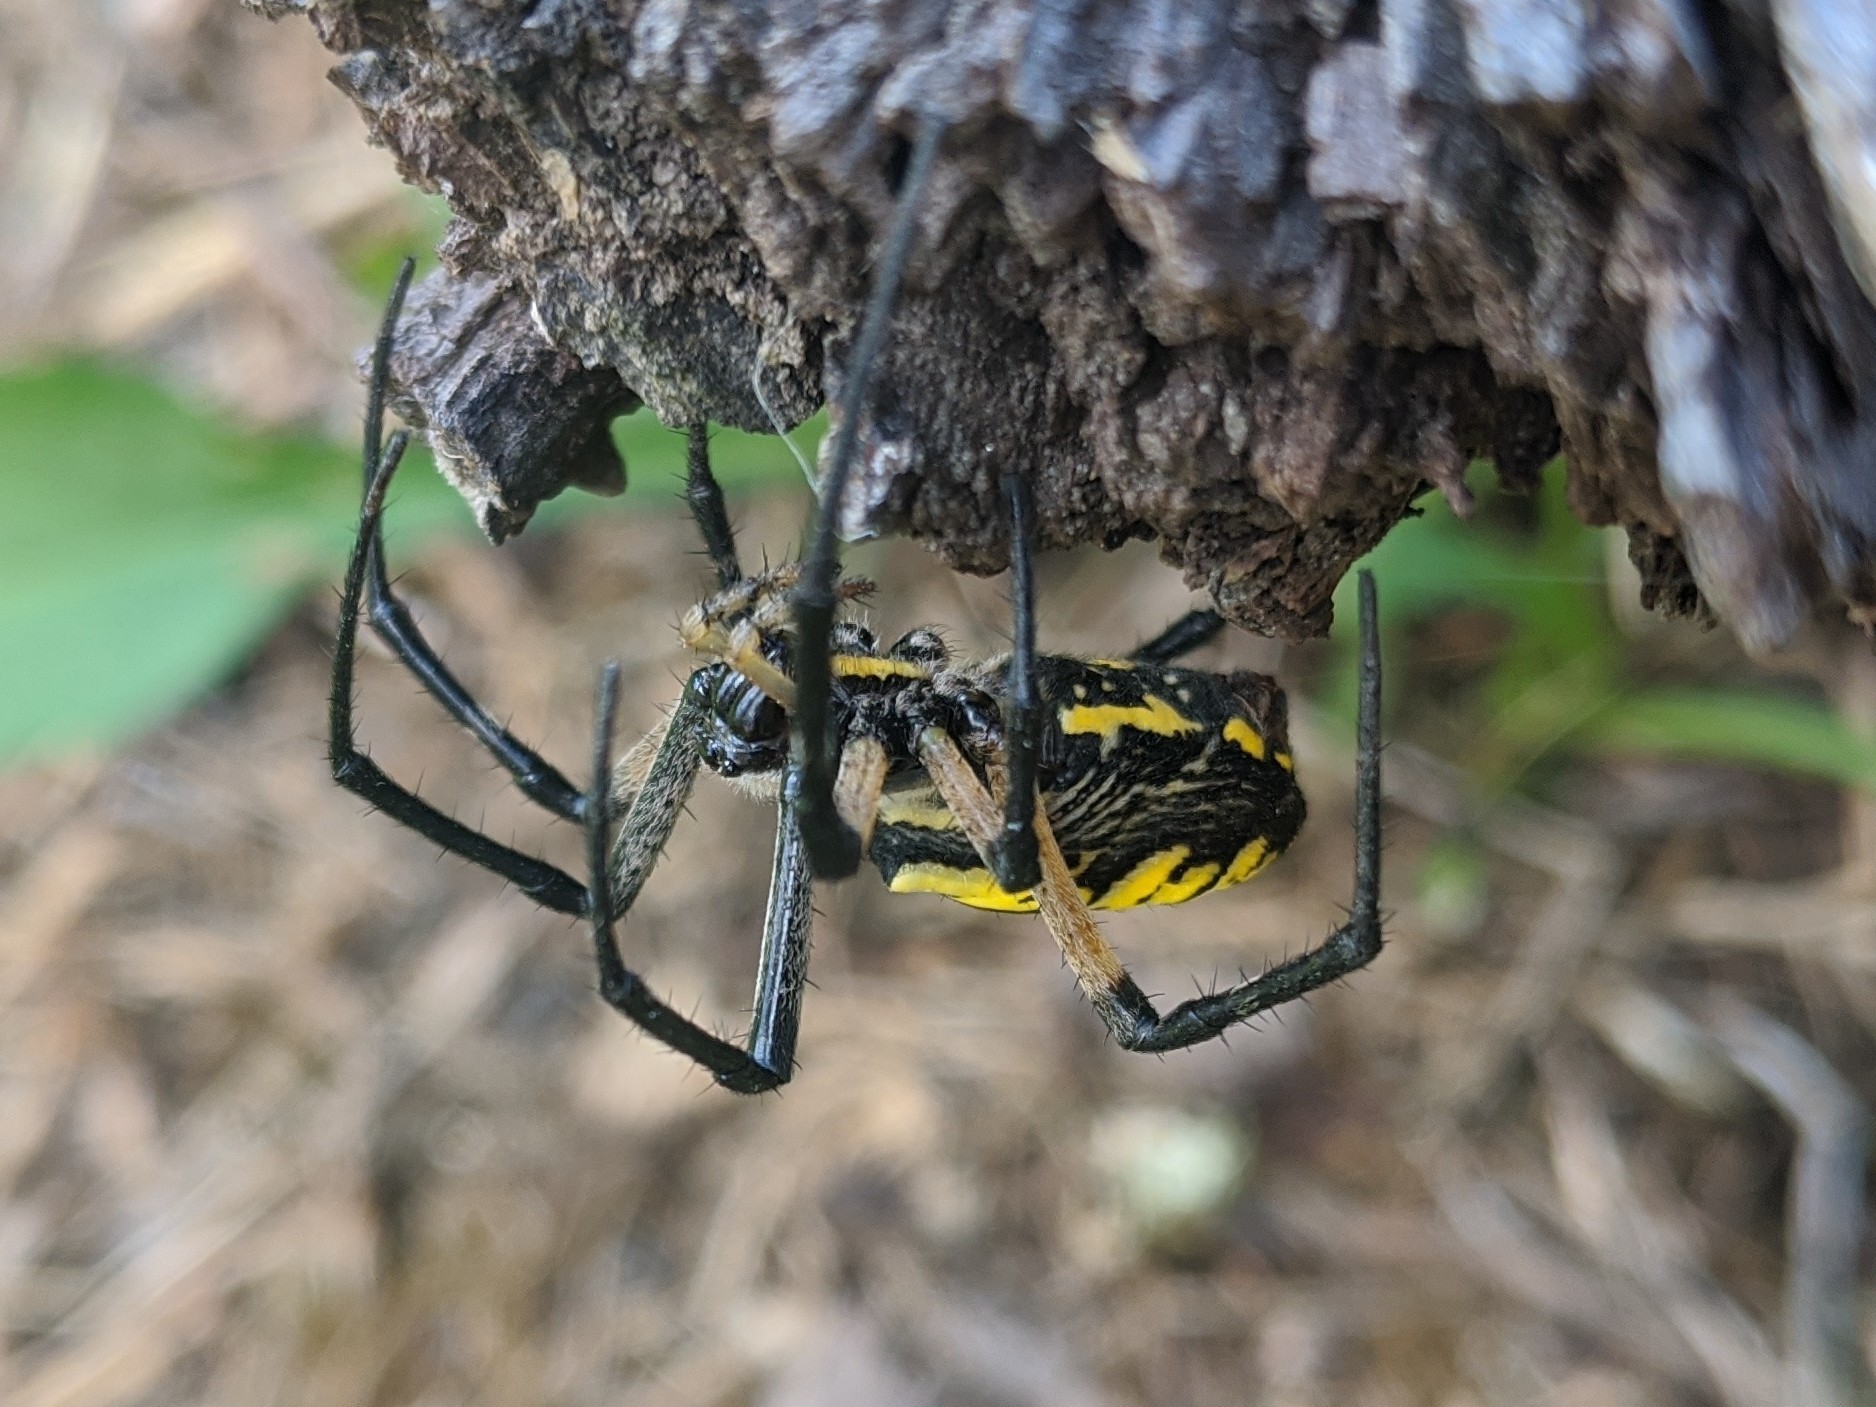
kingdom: Animalia
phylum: Arthropoda
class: Arachnida
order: Araneae
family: Araneidae
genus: Argiope
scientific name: Argiope aurantia
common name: Orb weavers
